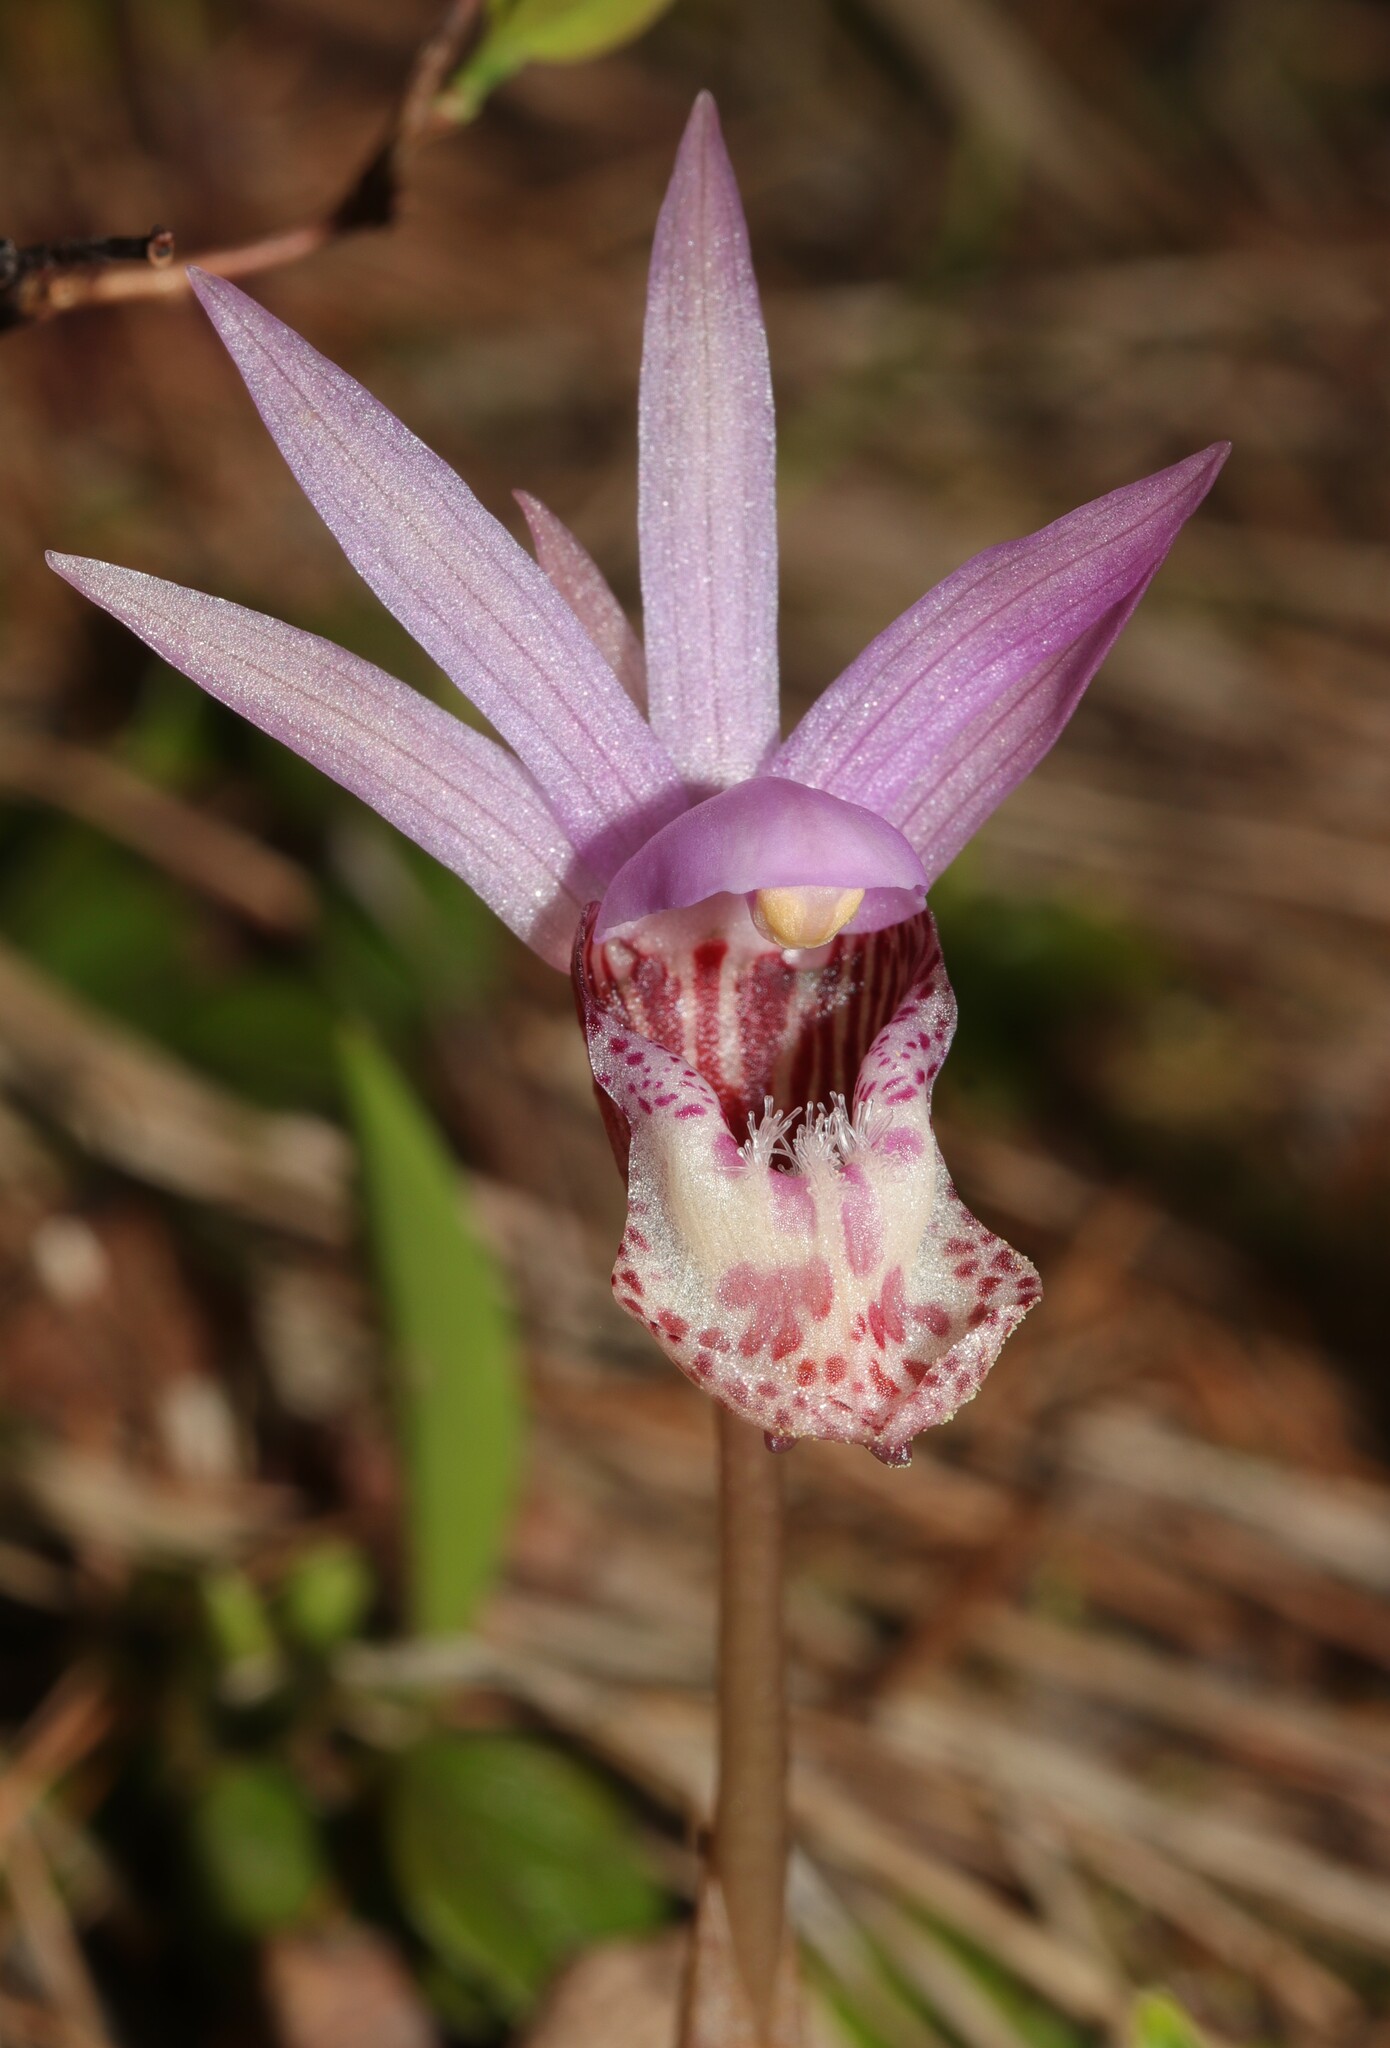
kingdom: Plantae
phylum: Tracheophyta
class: Liliopsida
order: Asparagales
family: Orchidaceae
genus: Calypso
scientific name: Calypso bulbosa
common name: Calypso
